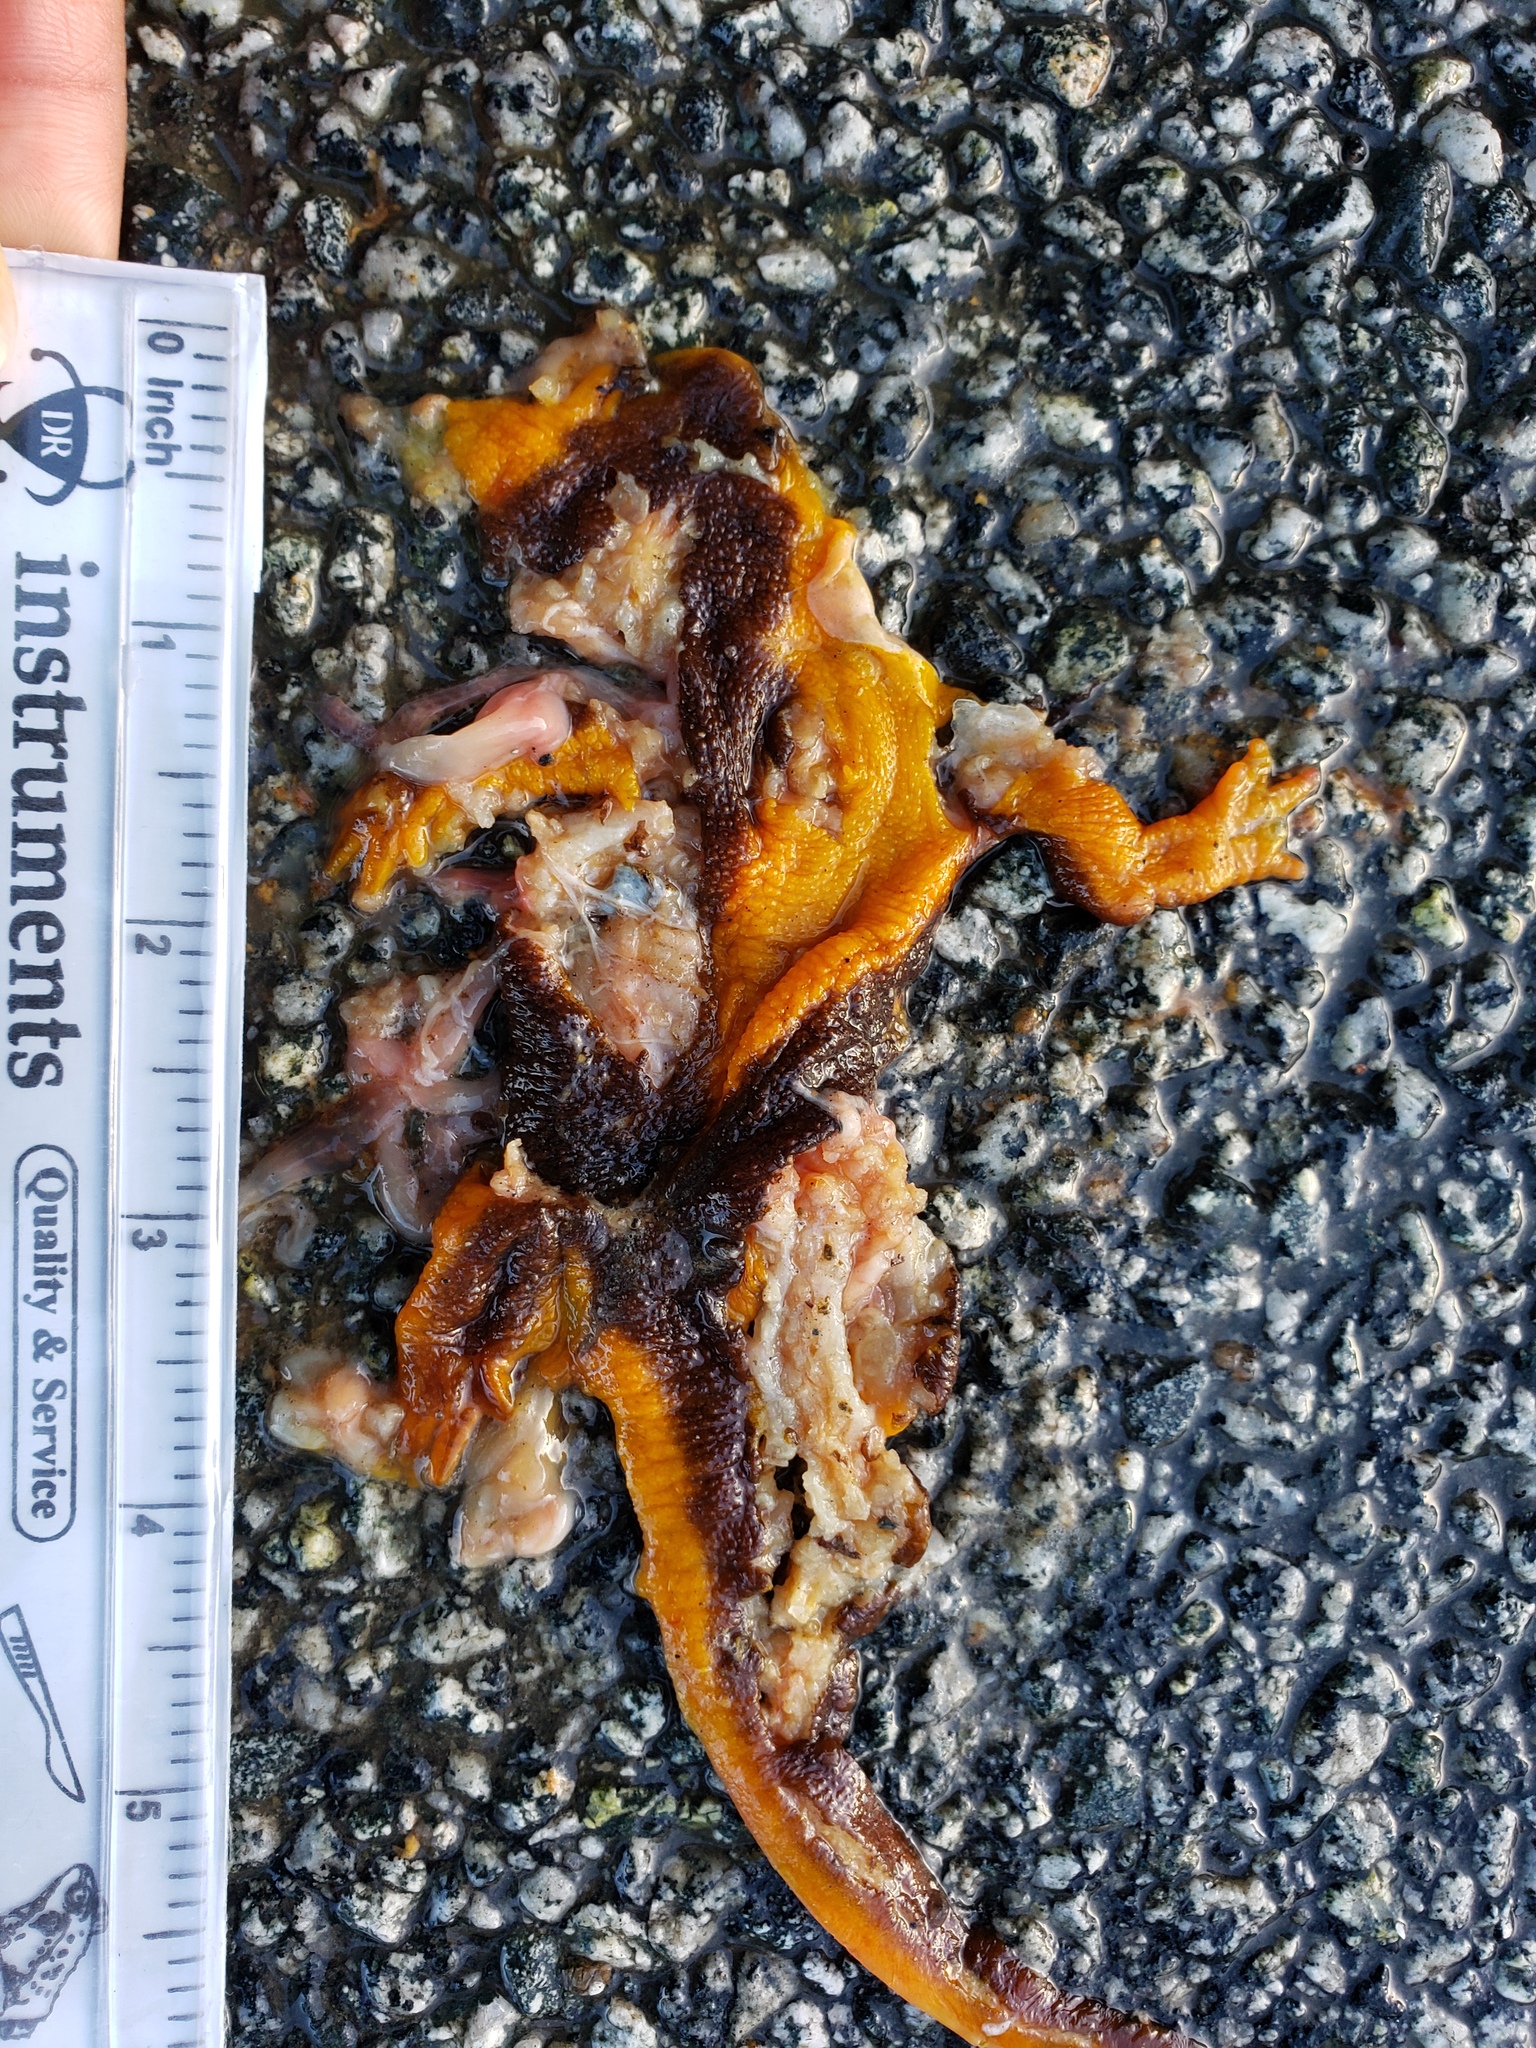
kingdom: Animalia
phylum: Chordata
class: Amphibia
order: Caudata
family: Salamandridae
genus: Taricha
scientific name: Taricha
